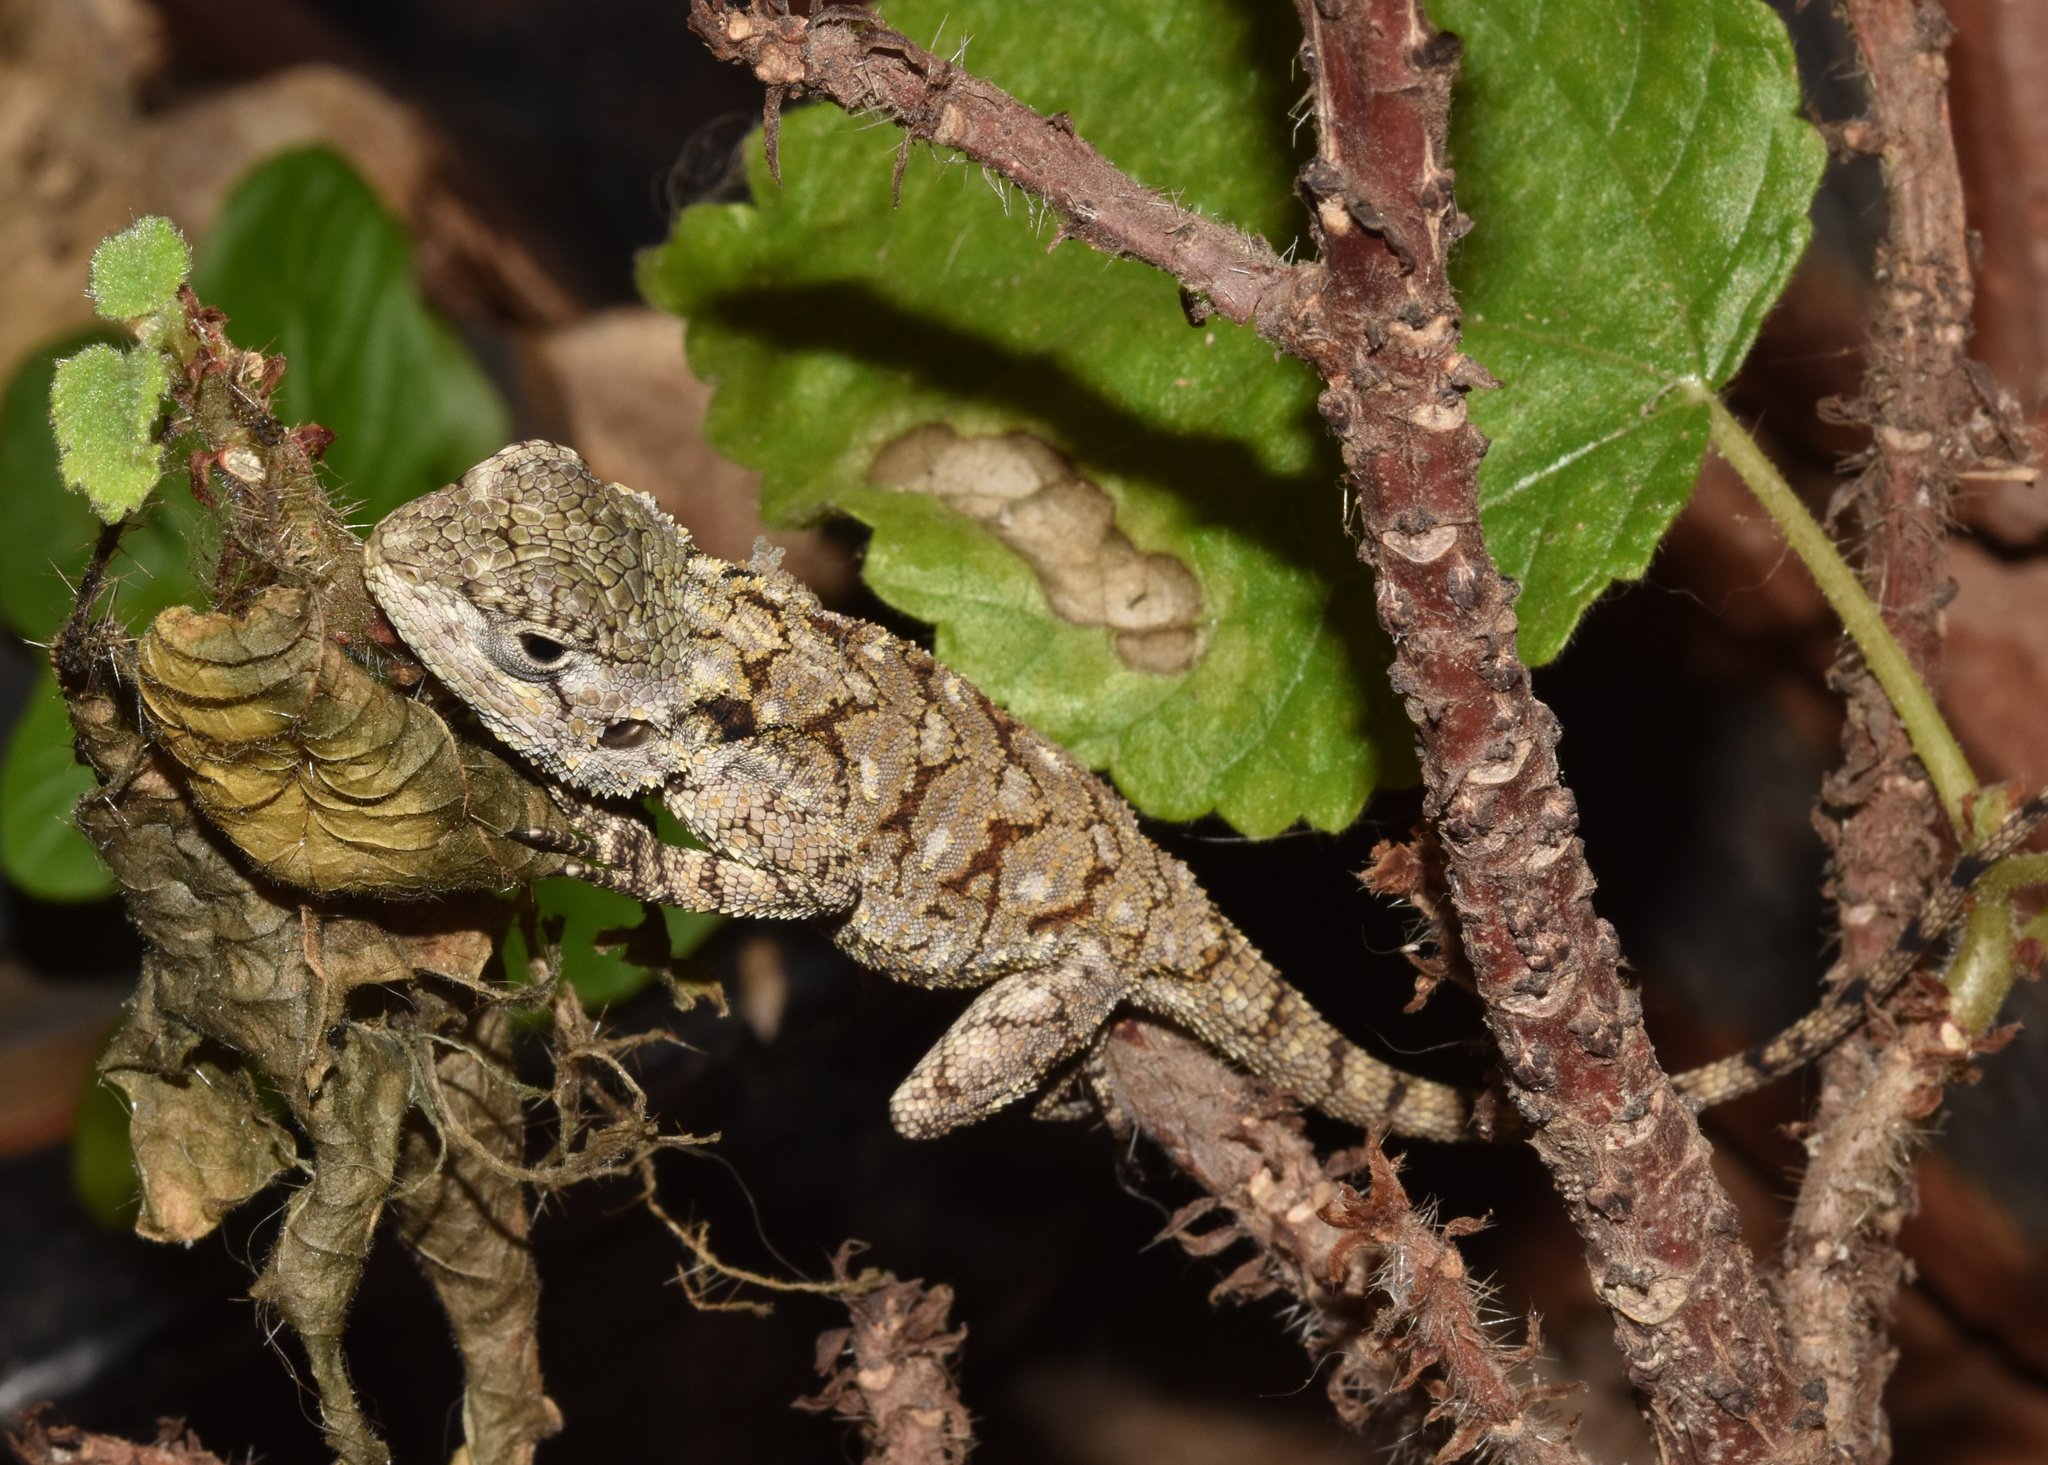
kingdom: Animalia
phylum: Chordata
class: Squamata
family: Agamidae
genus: Acanthocercus
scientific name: Acanthocercus atricollis
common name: Southern tree agama
